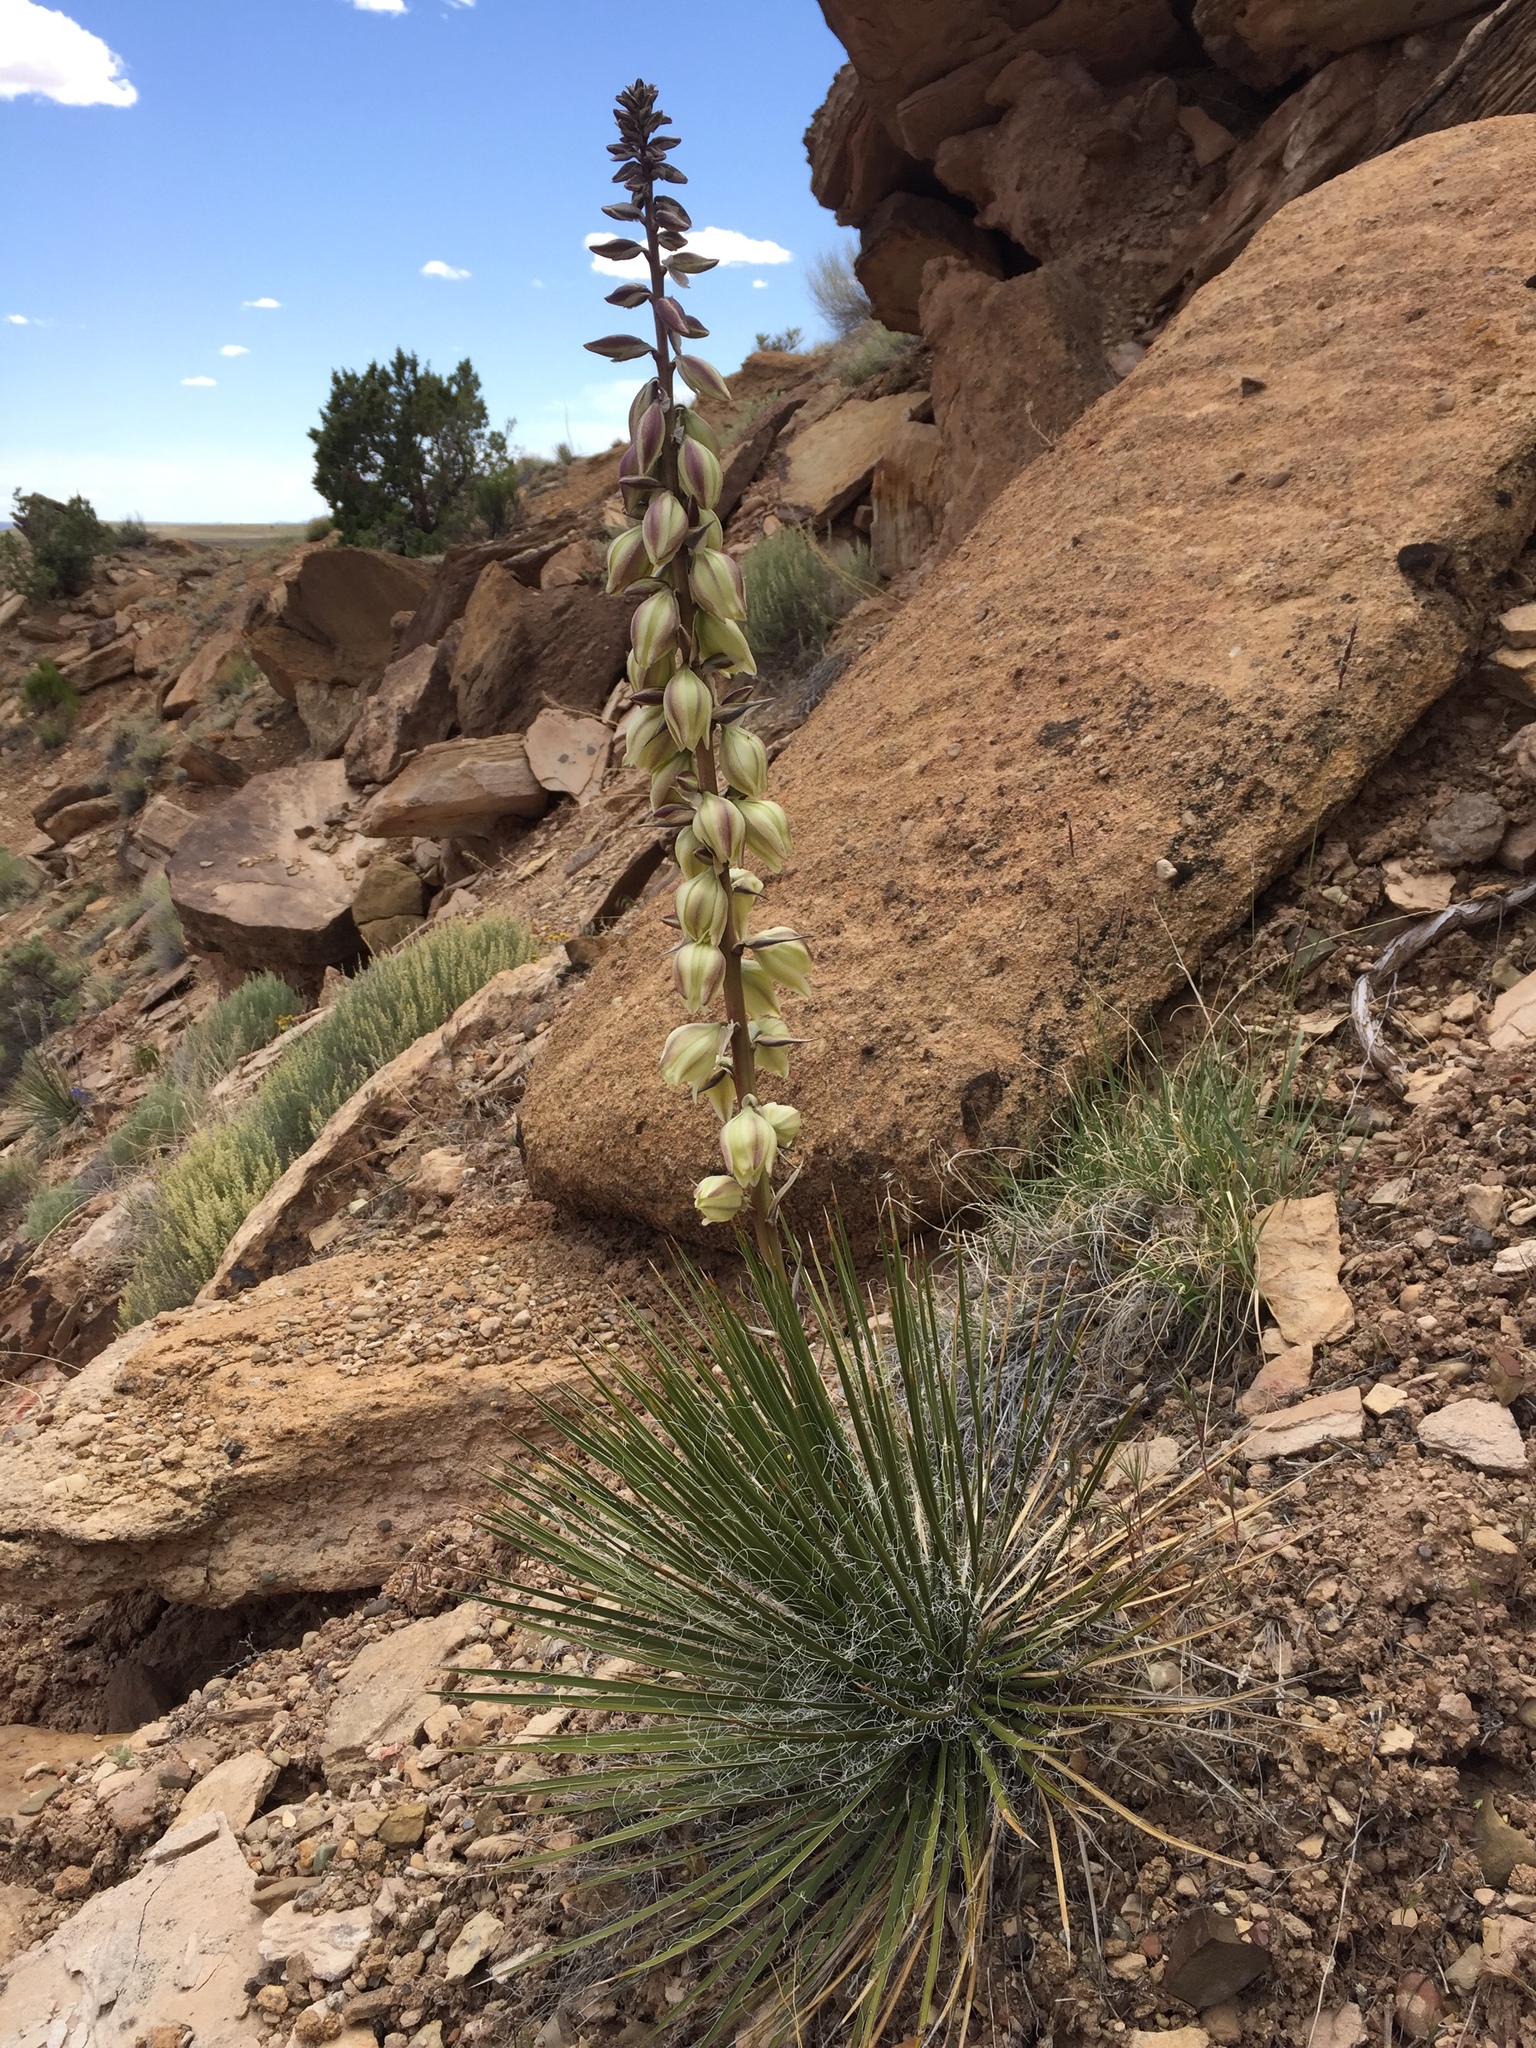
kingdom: Plantae
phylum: Tracheophyta
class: Liliopsida
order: Asparagales
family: Asparagaceae
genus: Yucca
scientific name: Yucca angustissima
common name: Narrowleaf yucca
